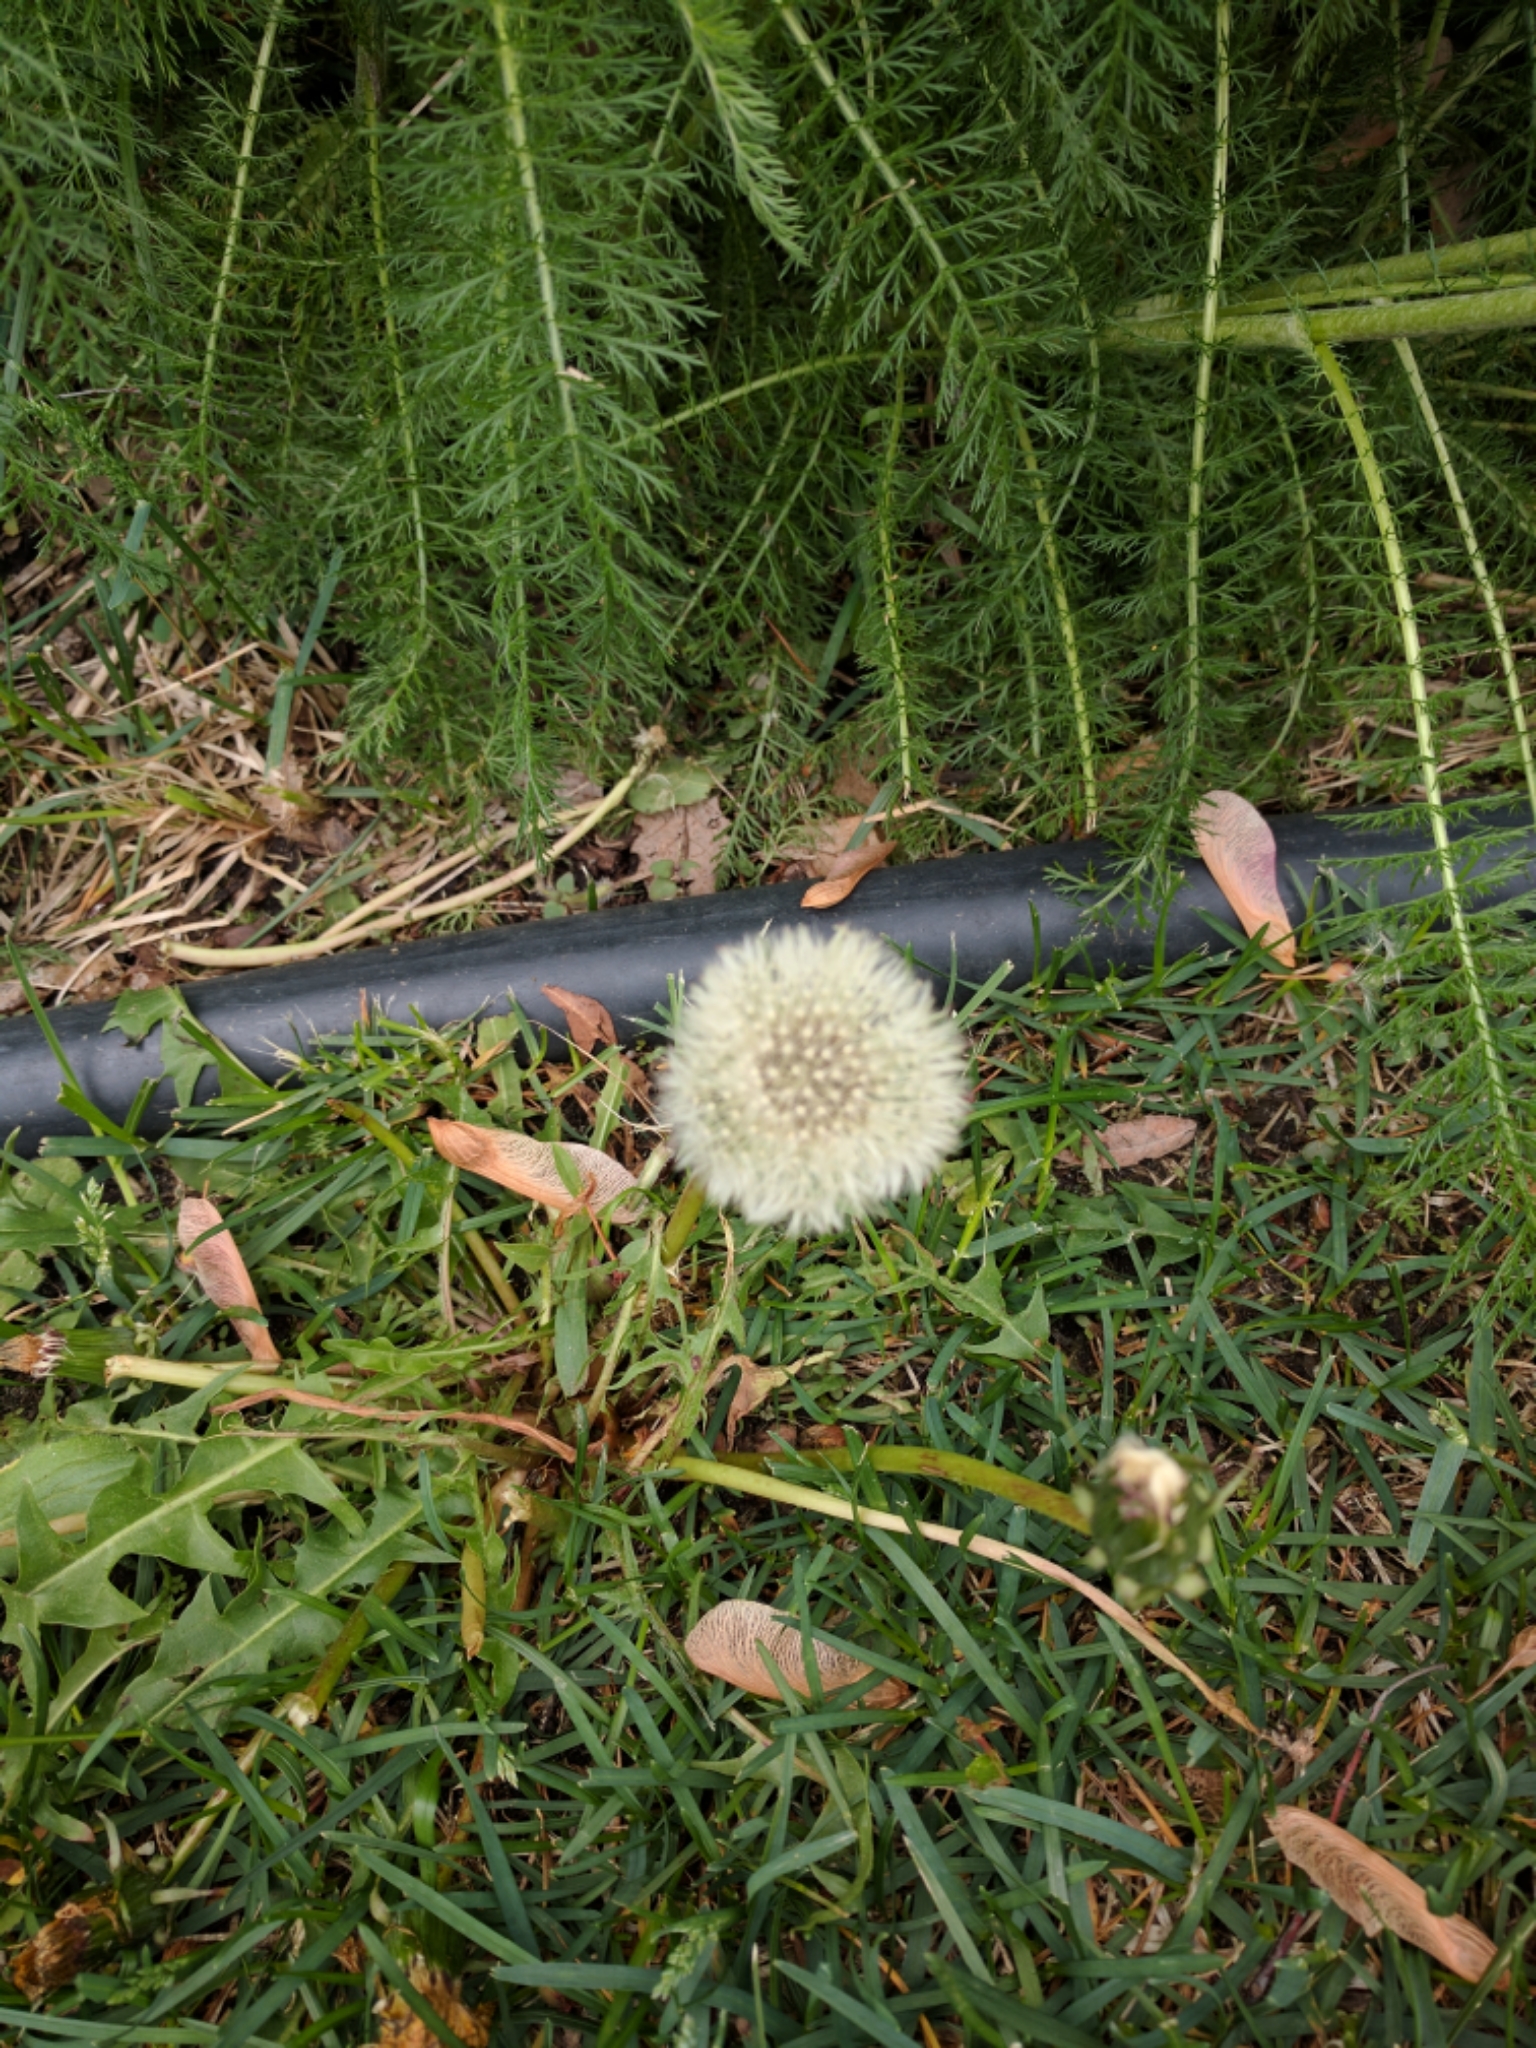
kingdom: Plantae
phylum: Tracheophyta
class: Magnoliopsida
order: Asterales
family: Asteraceae
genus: Taraxacum
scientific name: Taraxacum officinale
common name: Common dandelion
